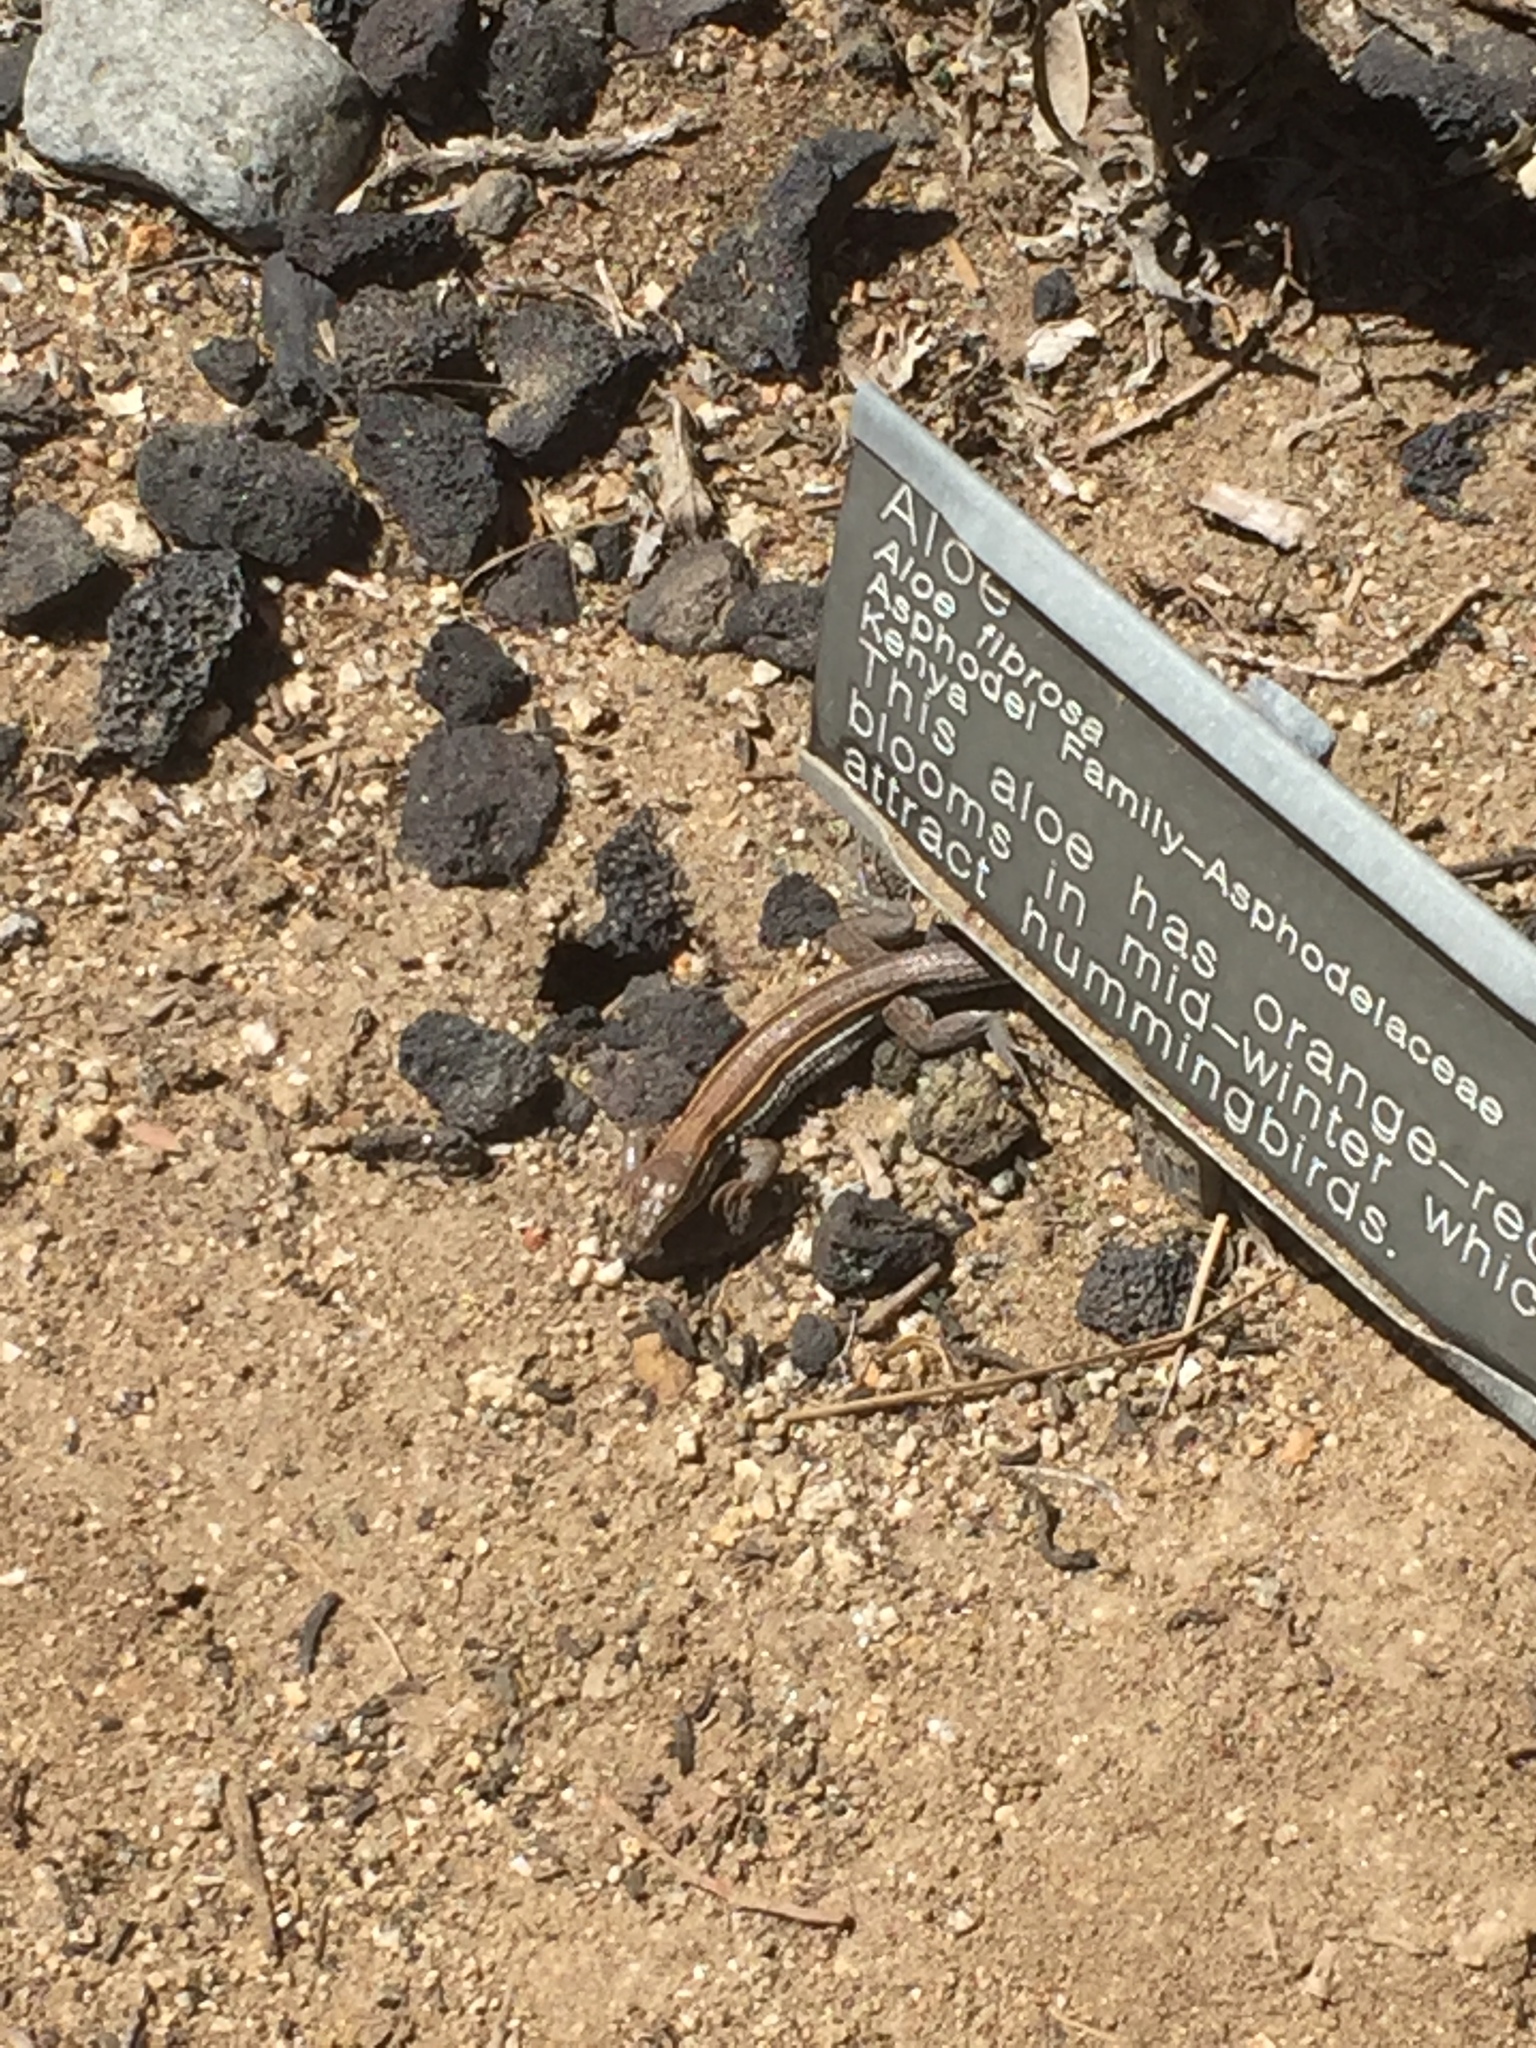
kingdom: Animalia
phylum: Chordata
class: Squamata
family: Teiidae
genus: Aspidoscelis
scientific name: Aspidoscelis hyperythrus
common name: Orange-throated race-runner
